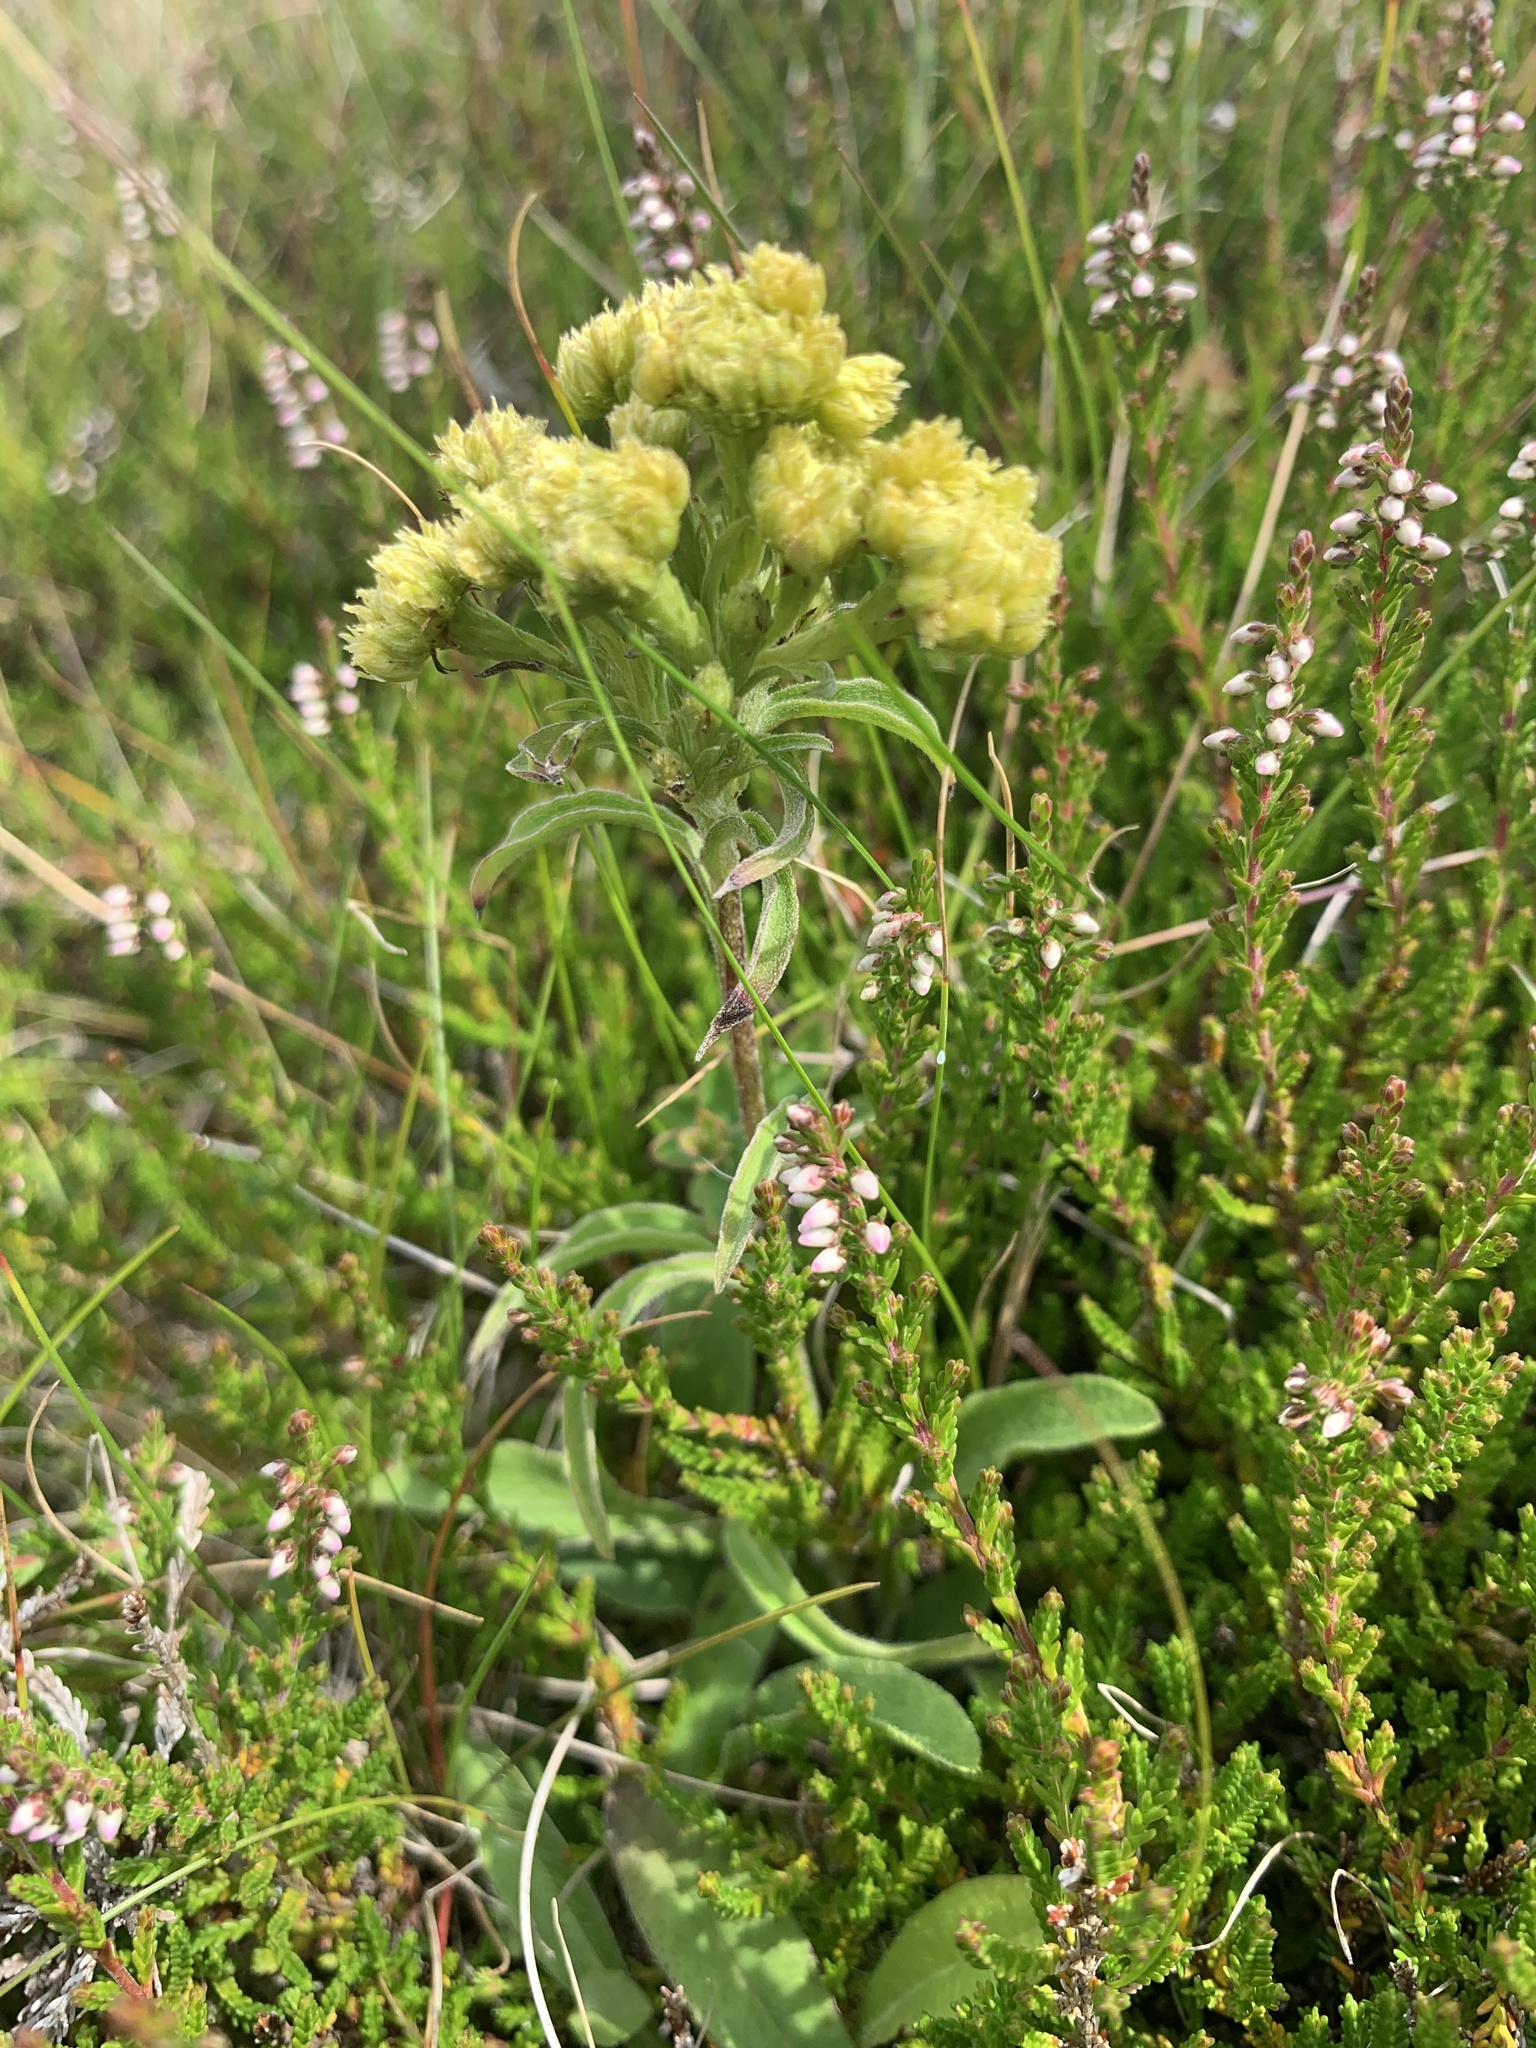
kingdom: Plantae
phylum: Tracheophyta
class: Magnoliopsida
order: Asterales
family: Asteraceae
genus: Helichrysum
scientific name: Helichrysum arenarium
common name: Strawflower
